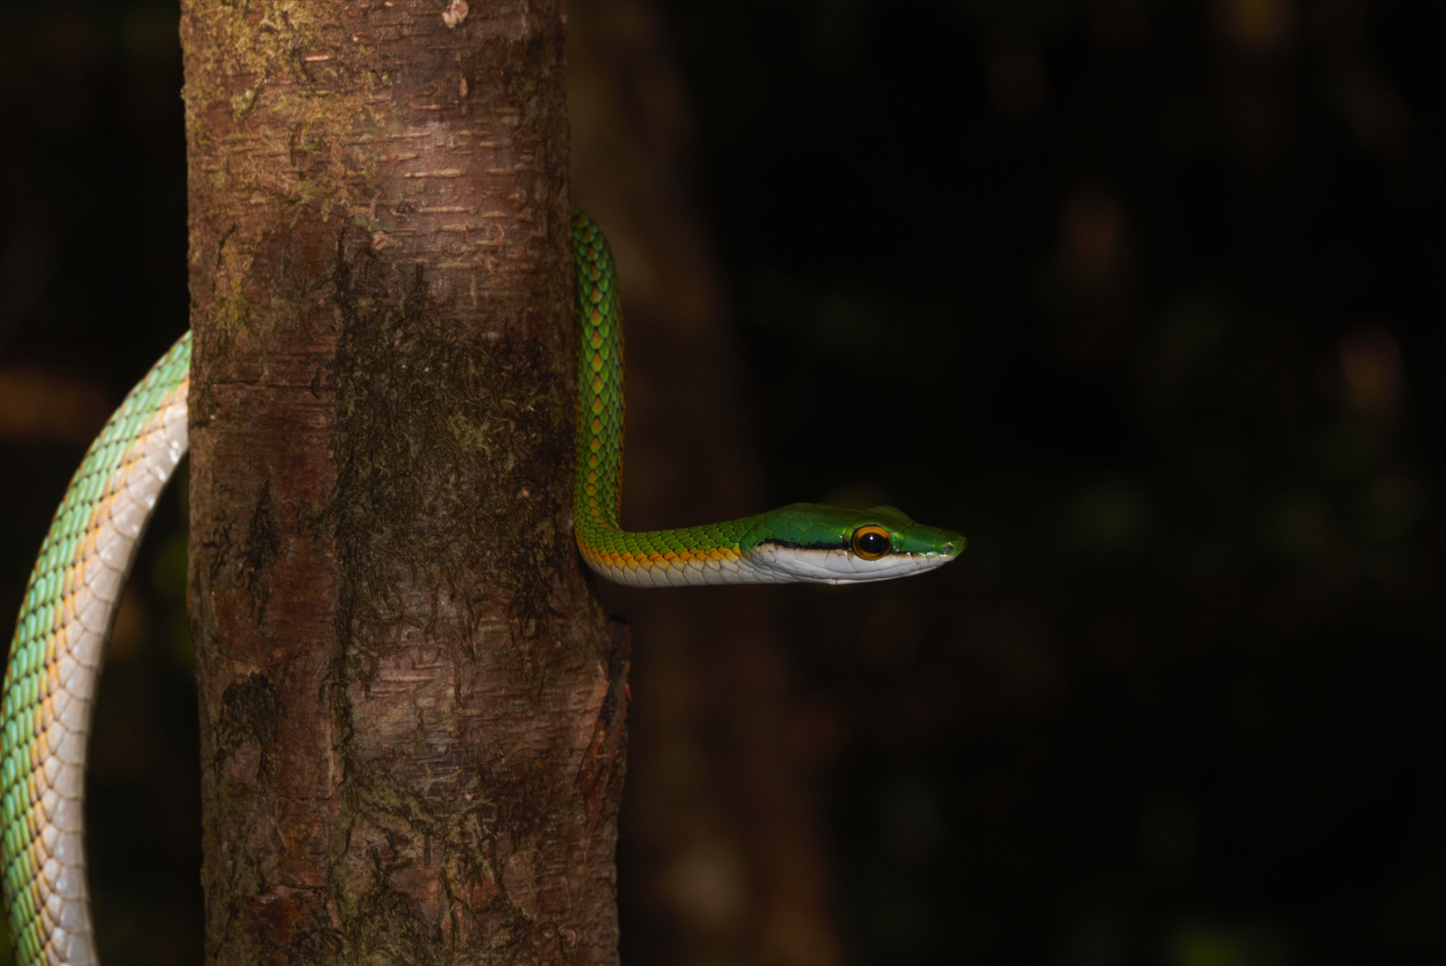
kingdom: Animalia
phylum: Chordata
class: Squamata
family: Colubridae
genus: Leptophis
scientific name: Leptophis ahaetulla
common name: Parrot snake
